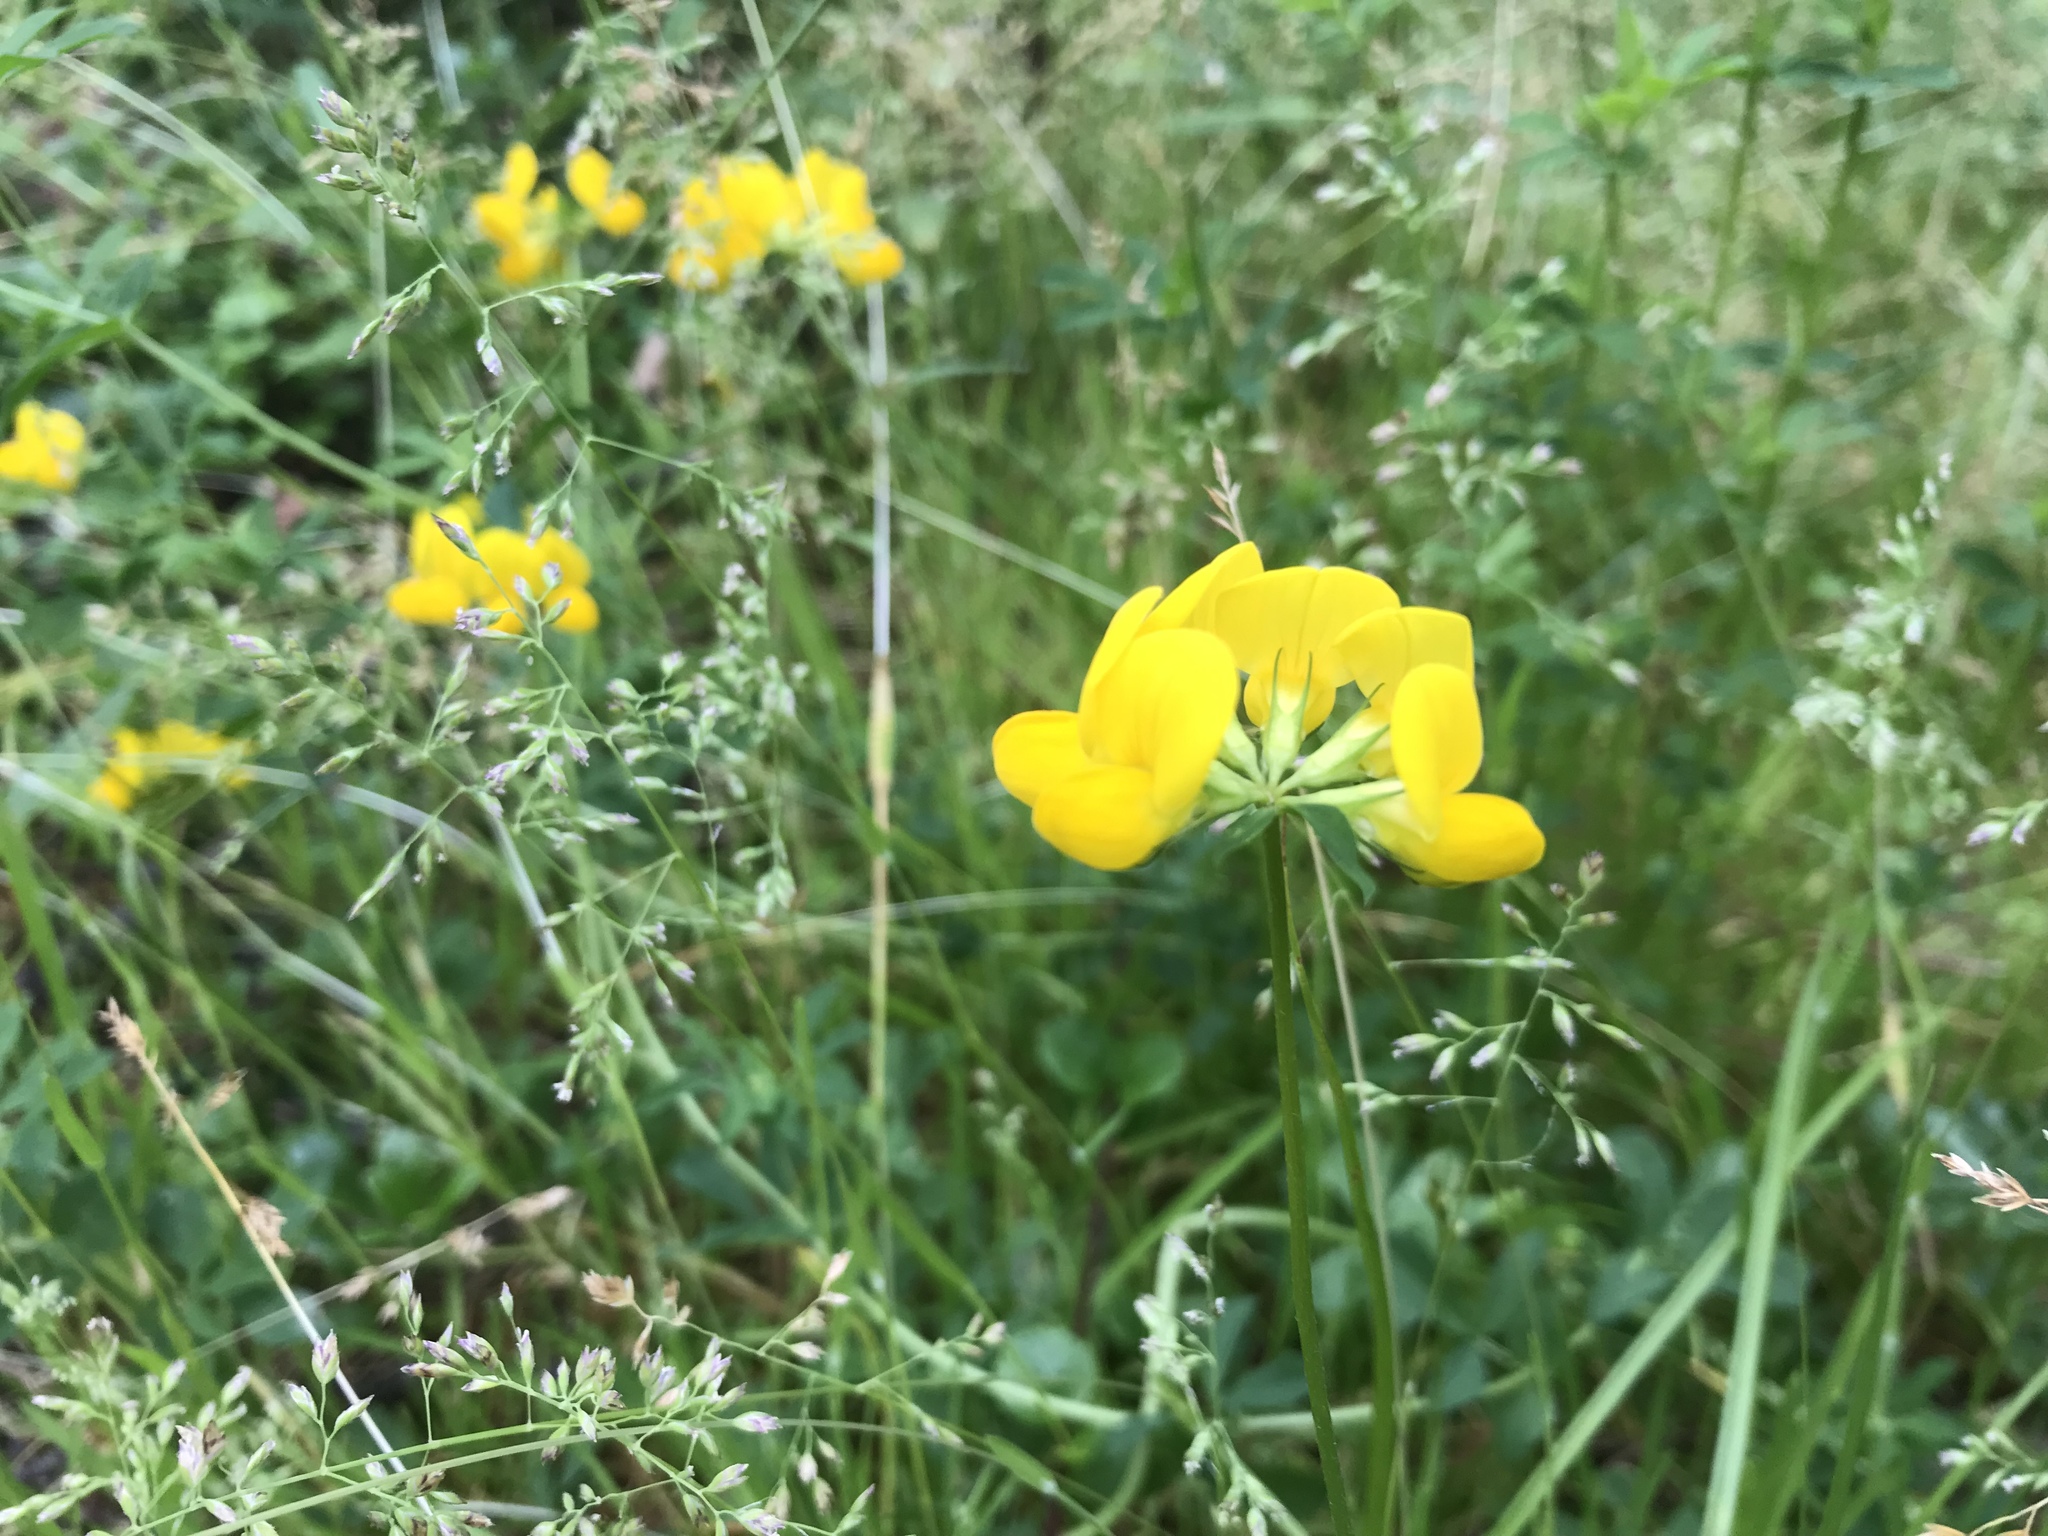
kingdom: Plantae
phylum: Tracheophyta
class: Magnoliopsida
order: Fabales
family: Fabaceae
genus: Lotus
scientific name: Lotus corniculatus
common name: Common bird's-foot-trefoil
